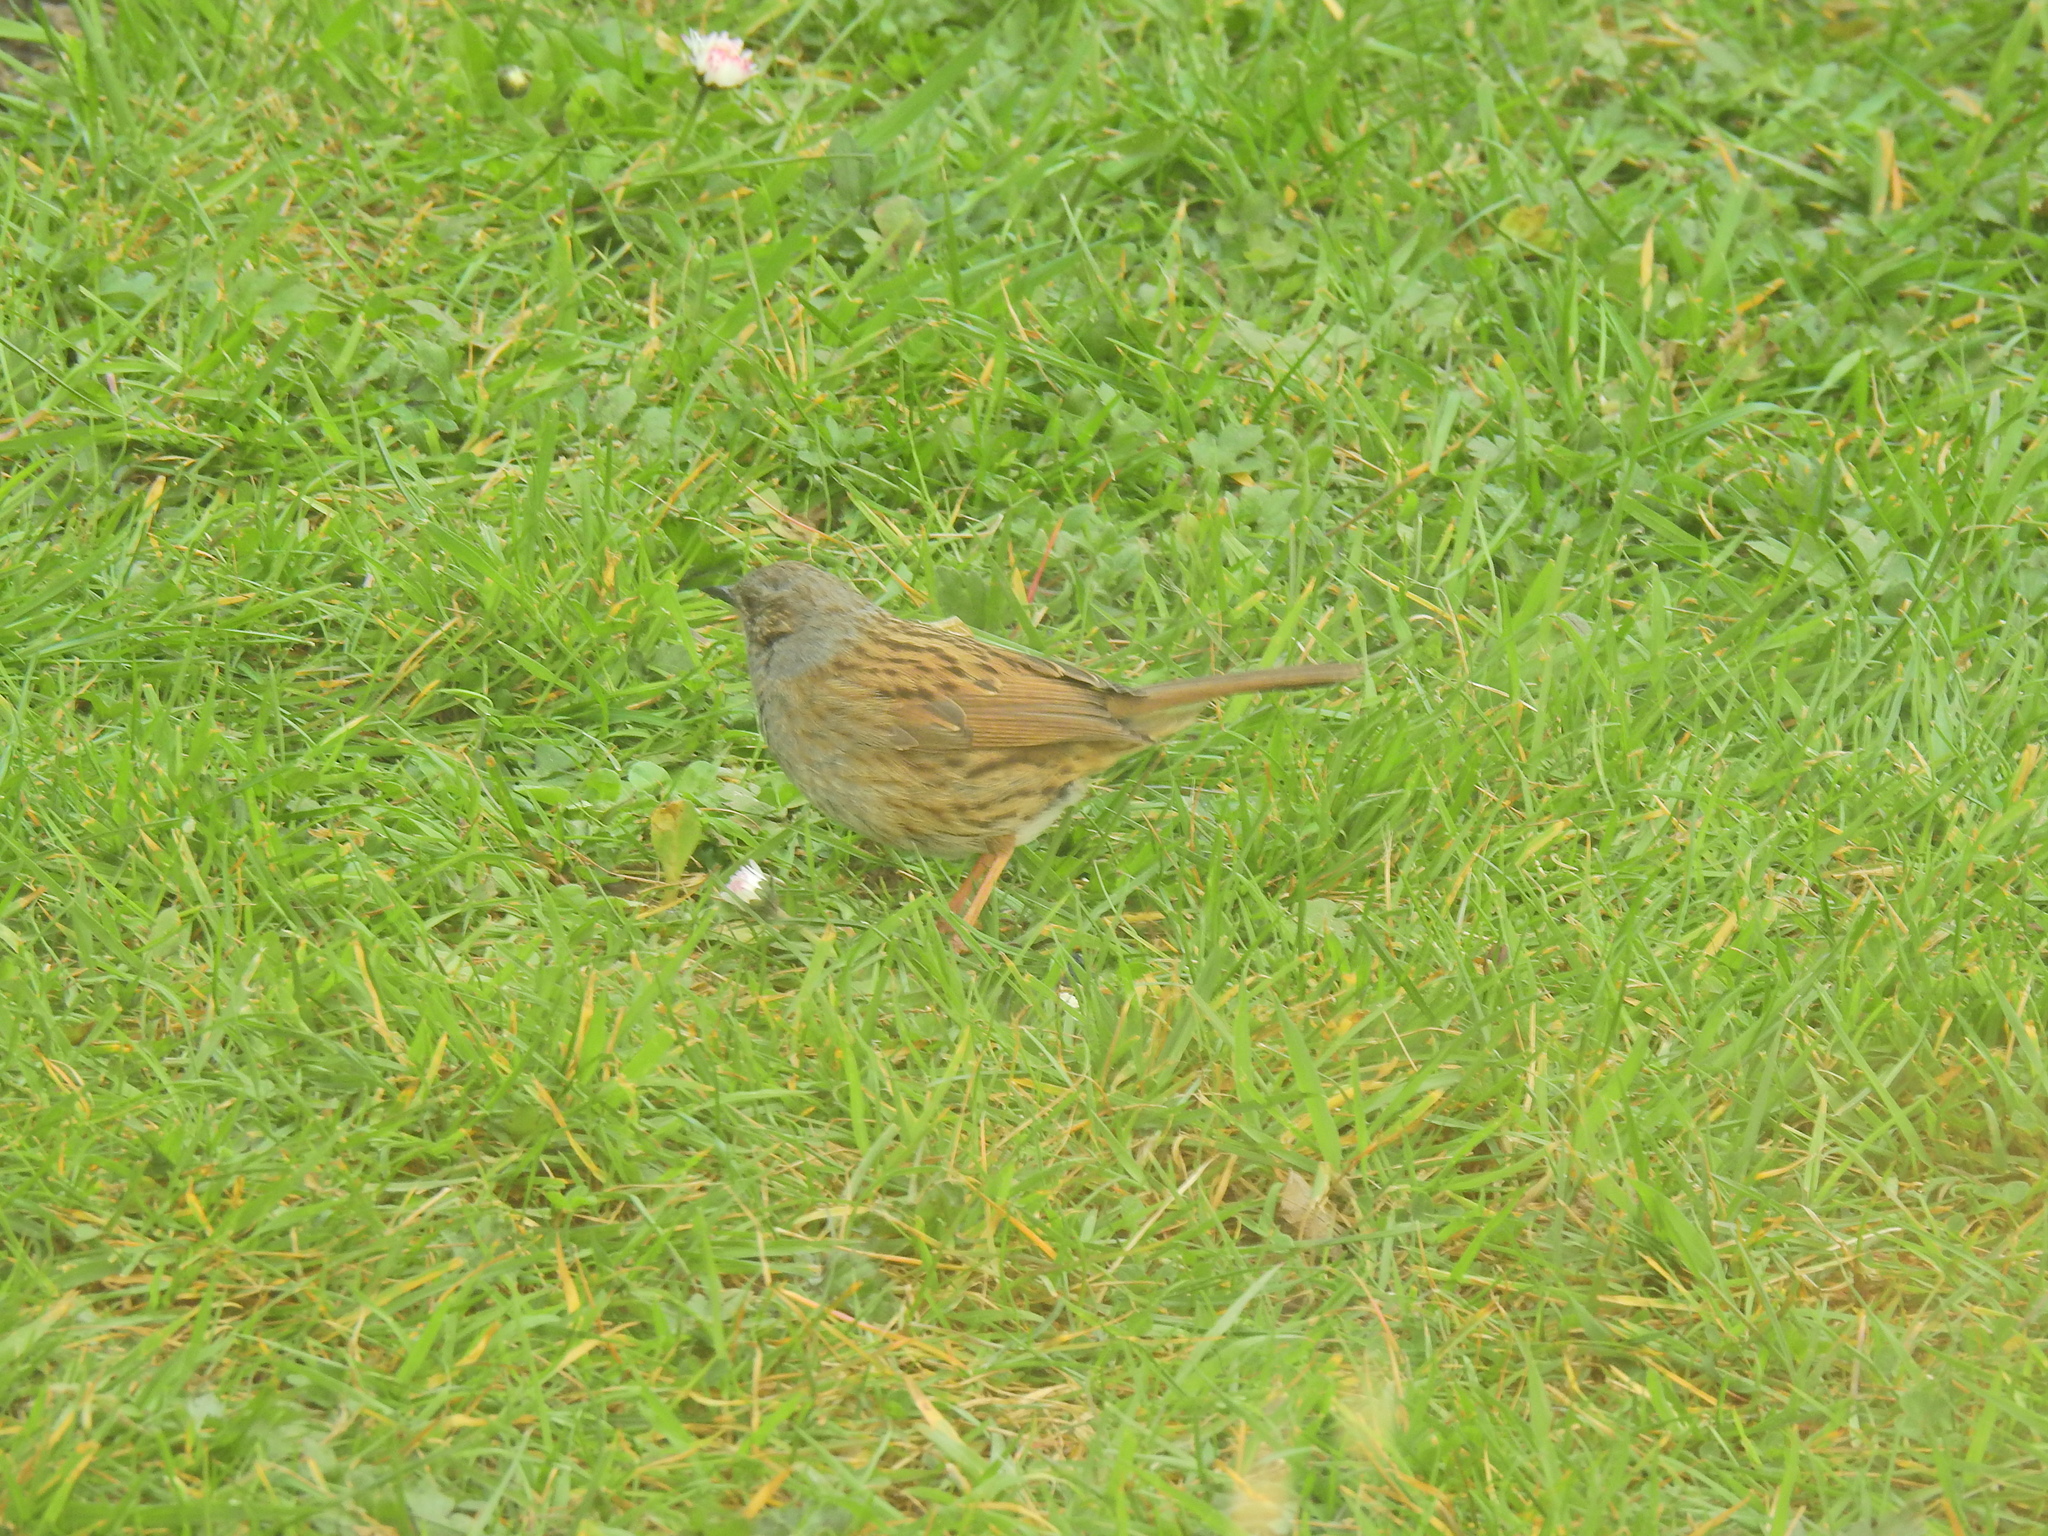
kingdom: Animalia
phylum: Chordata
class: Aves
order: Passeriformes
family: Prunellidae
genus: Prunella
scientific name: Prunella modularis
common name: Dunnock
